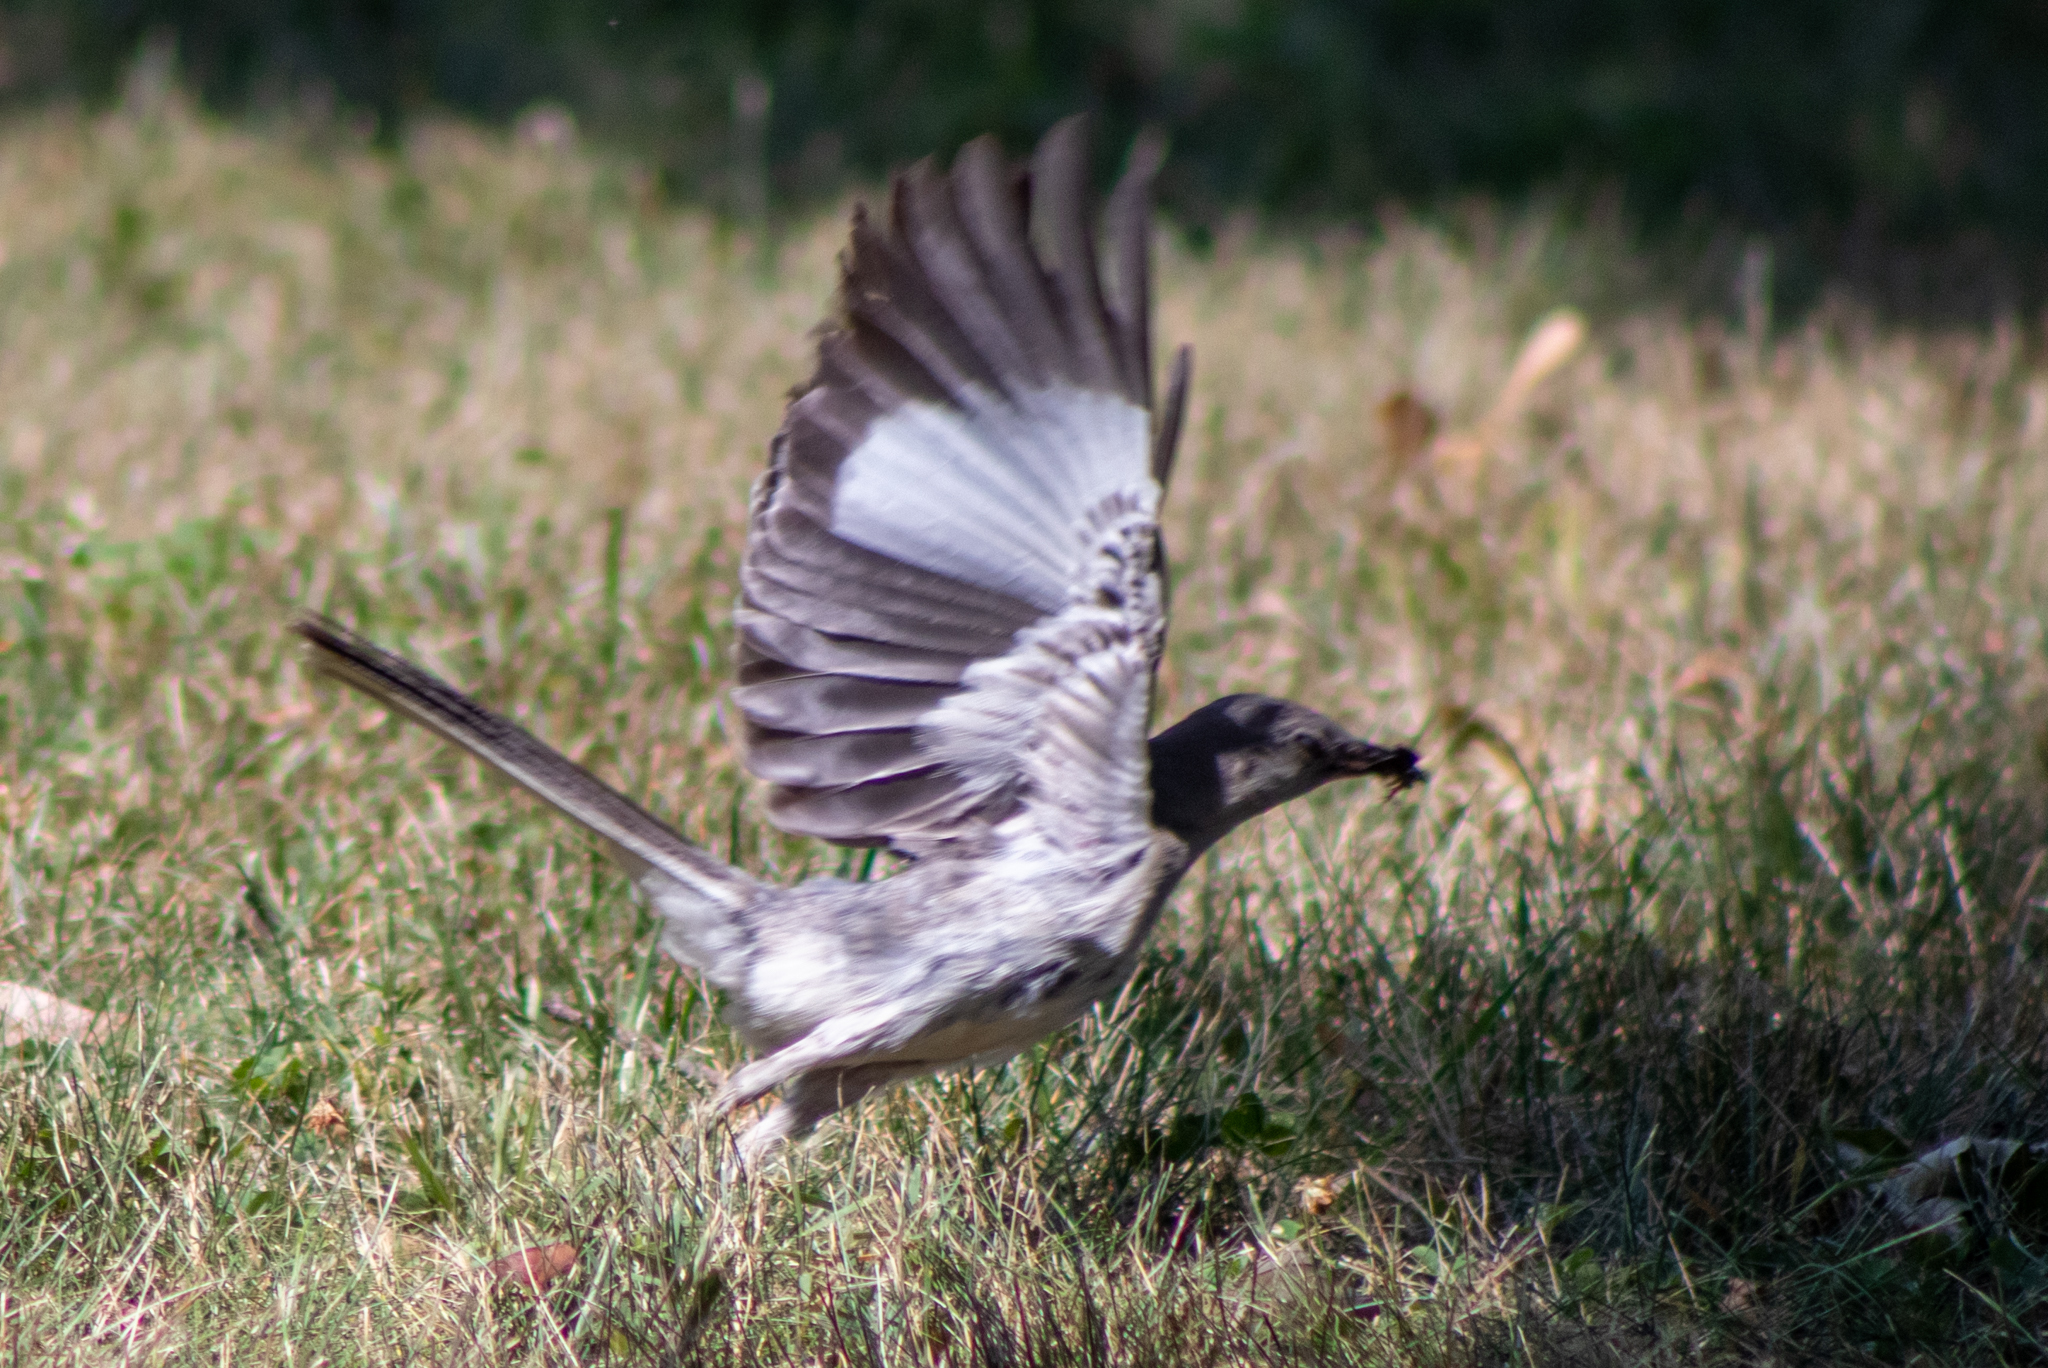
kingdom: Animalia
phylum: Chordata
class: Aves
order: Passeriformes
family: Mimidae
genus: Mimus
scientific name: Mimus polyglottos
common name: Northern mockingbird
